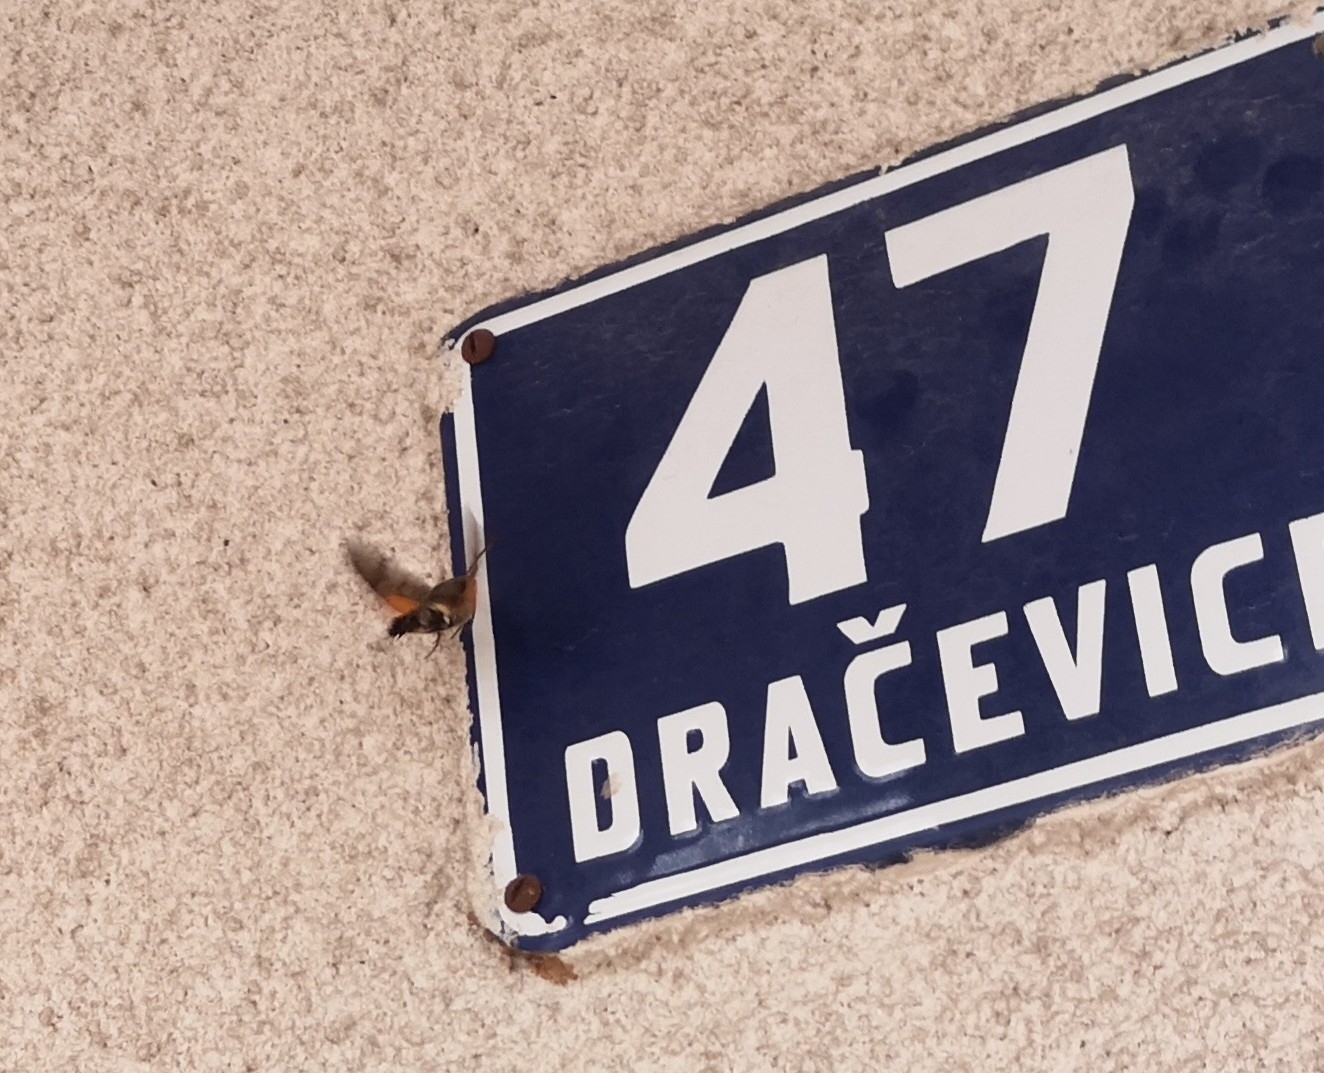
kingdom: Animalia
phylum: Arthropoda
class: Insecta
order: Lepidoptera
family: Sphingidae
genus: Macroglossum
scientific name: Macroglossum stellatarum
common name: Humming-bird hawk-moth
